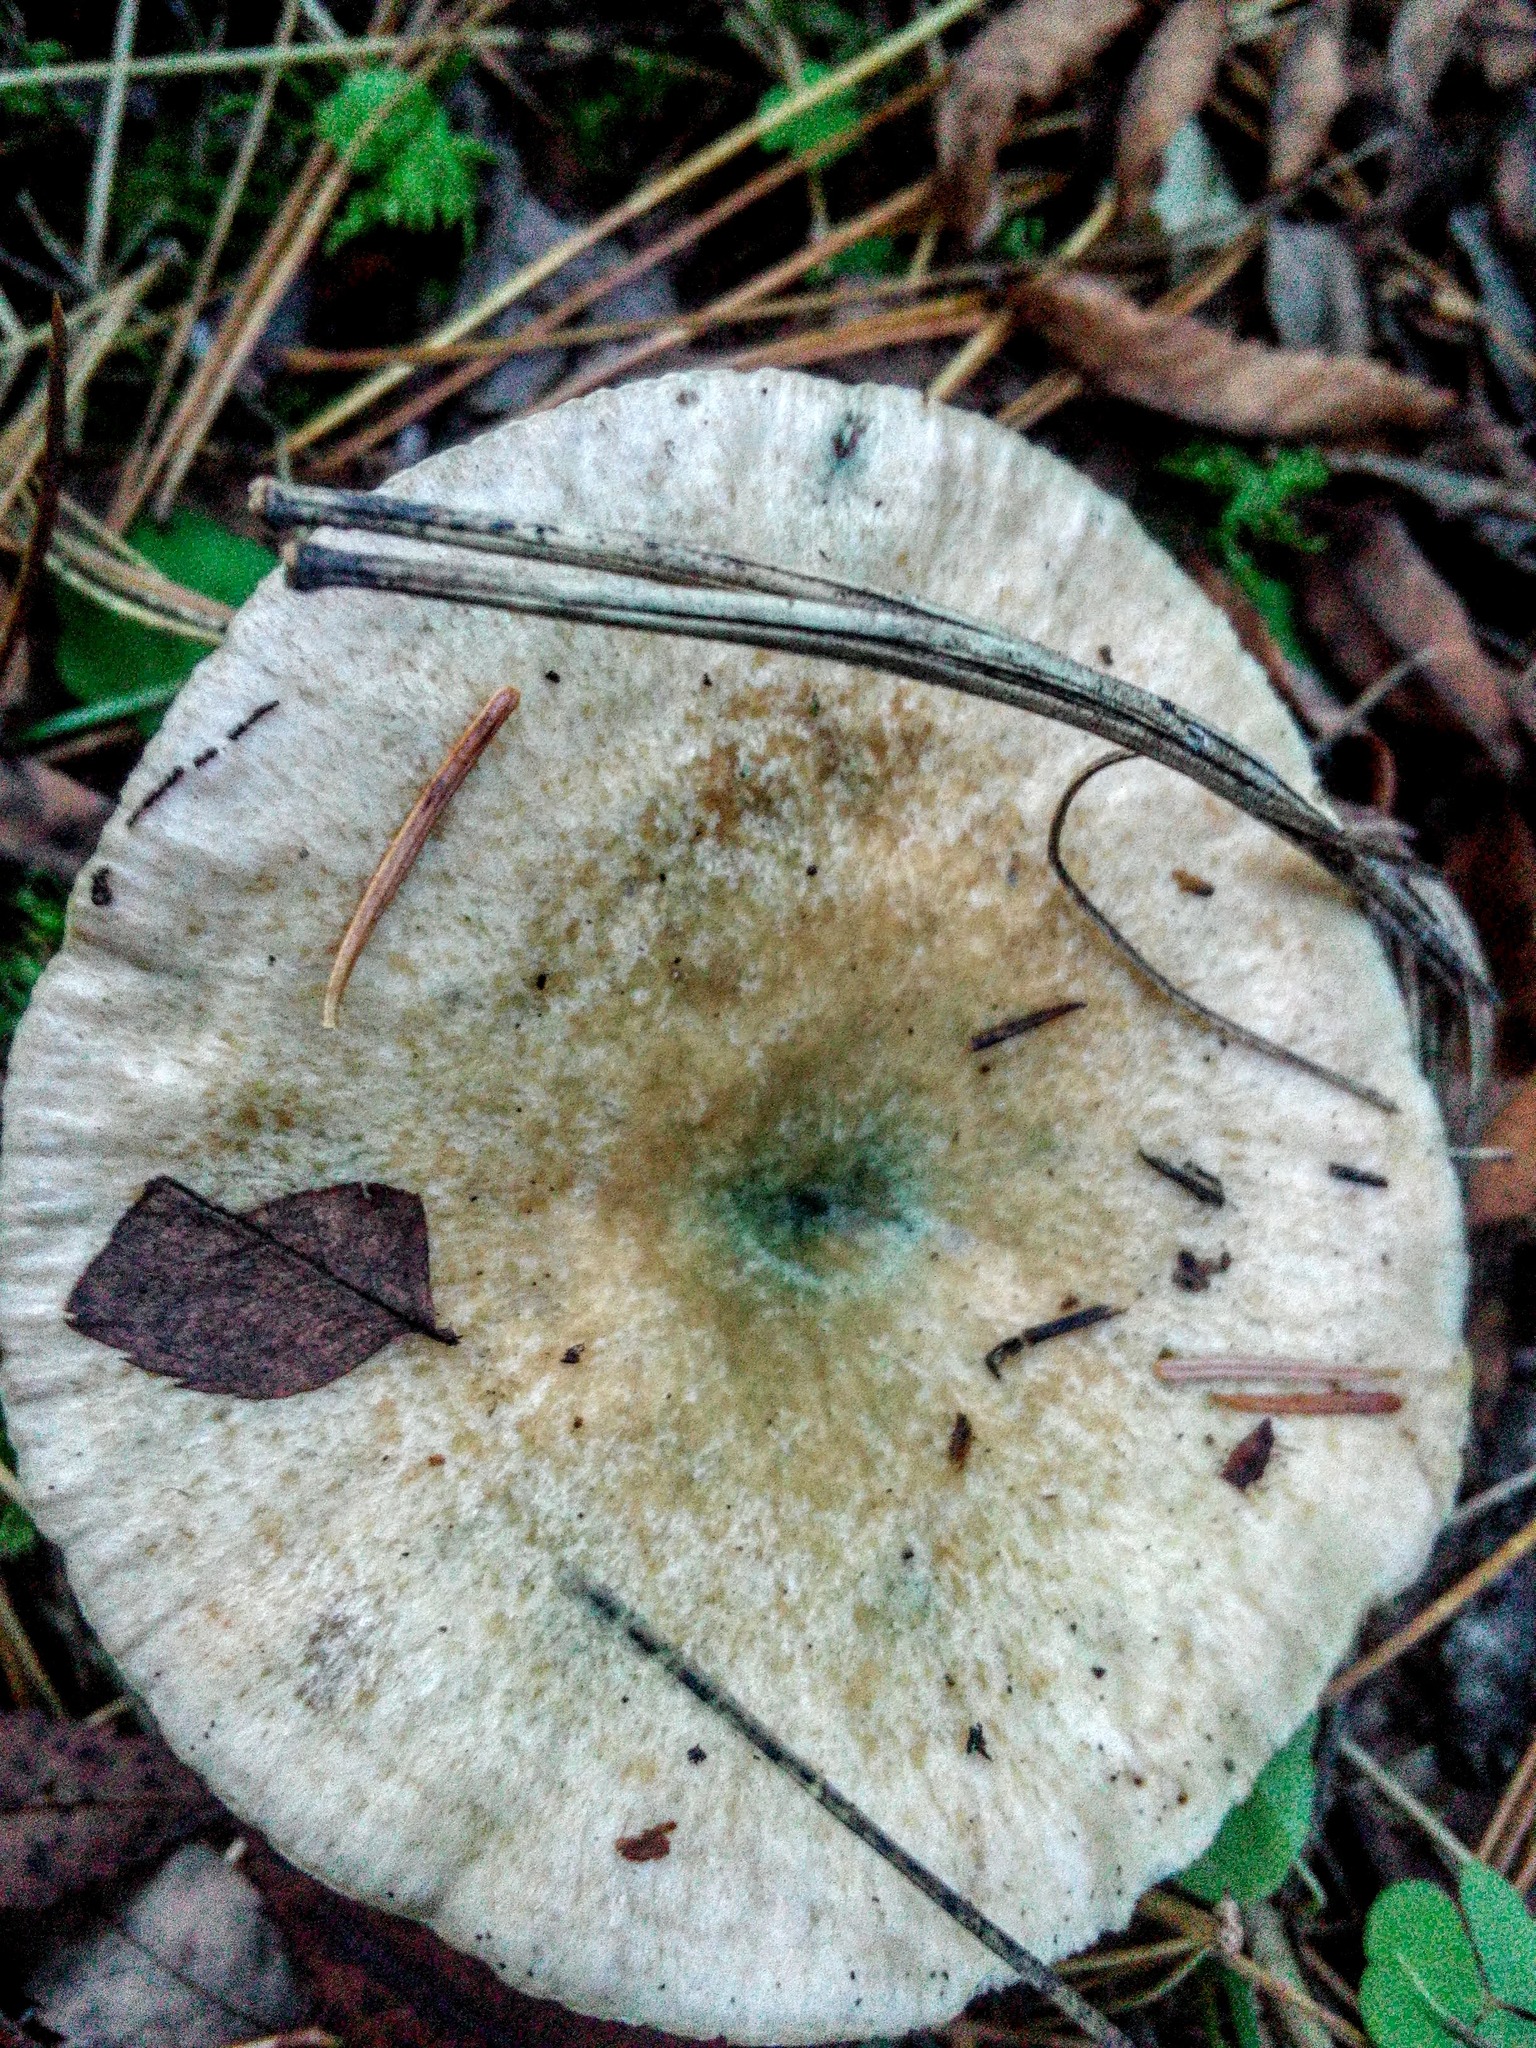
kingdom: Fungi
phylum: Basidiomycota
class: Agaricomycetes
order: Russulales
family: Russulaceae
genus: Lactarius
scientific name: Lactarius deterrimus
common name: False saffron milkcap
